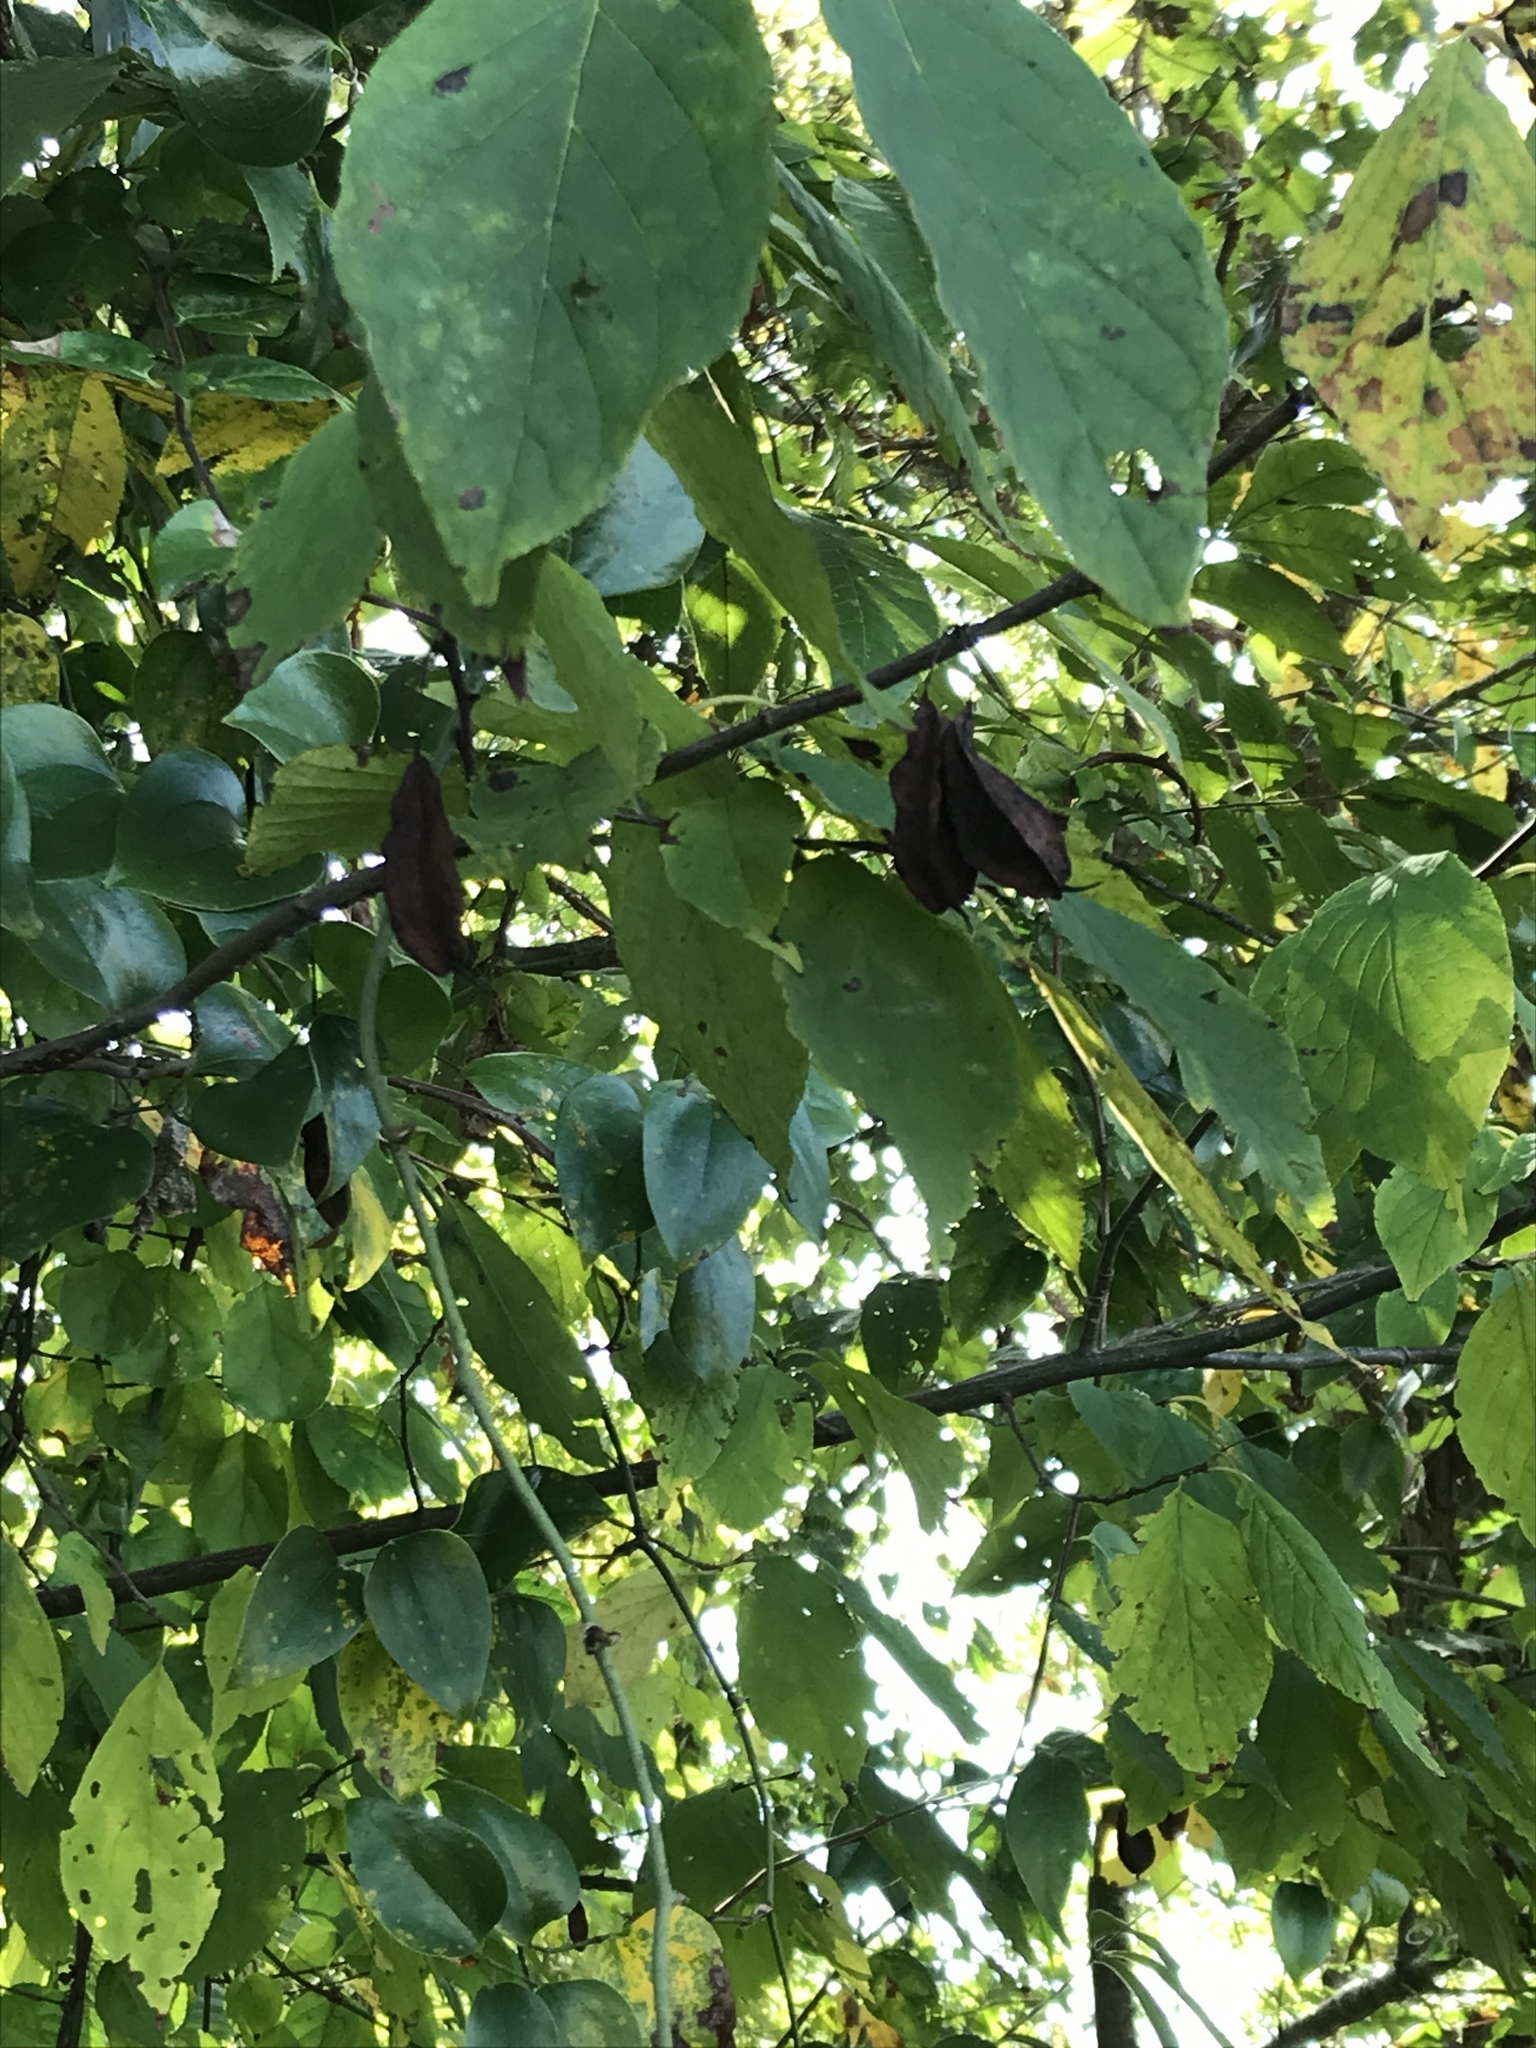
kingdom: Plantae
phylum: Tracheophyta
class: Magnoliopsida
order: Ericales
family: Styracaceae
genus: Halesia
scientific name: Halesia carolina
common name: Carolina silverbell
